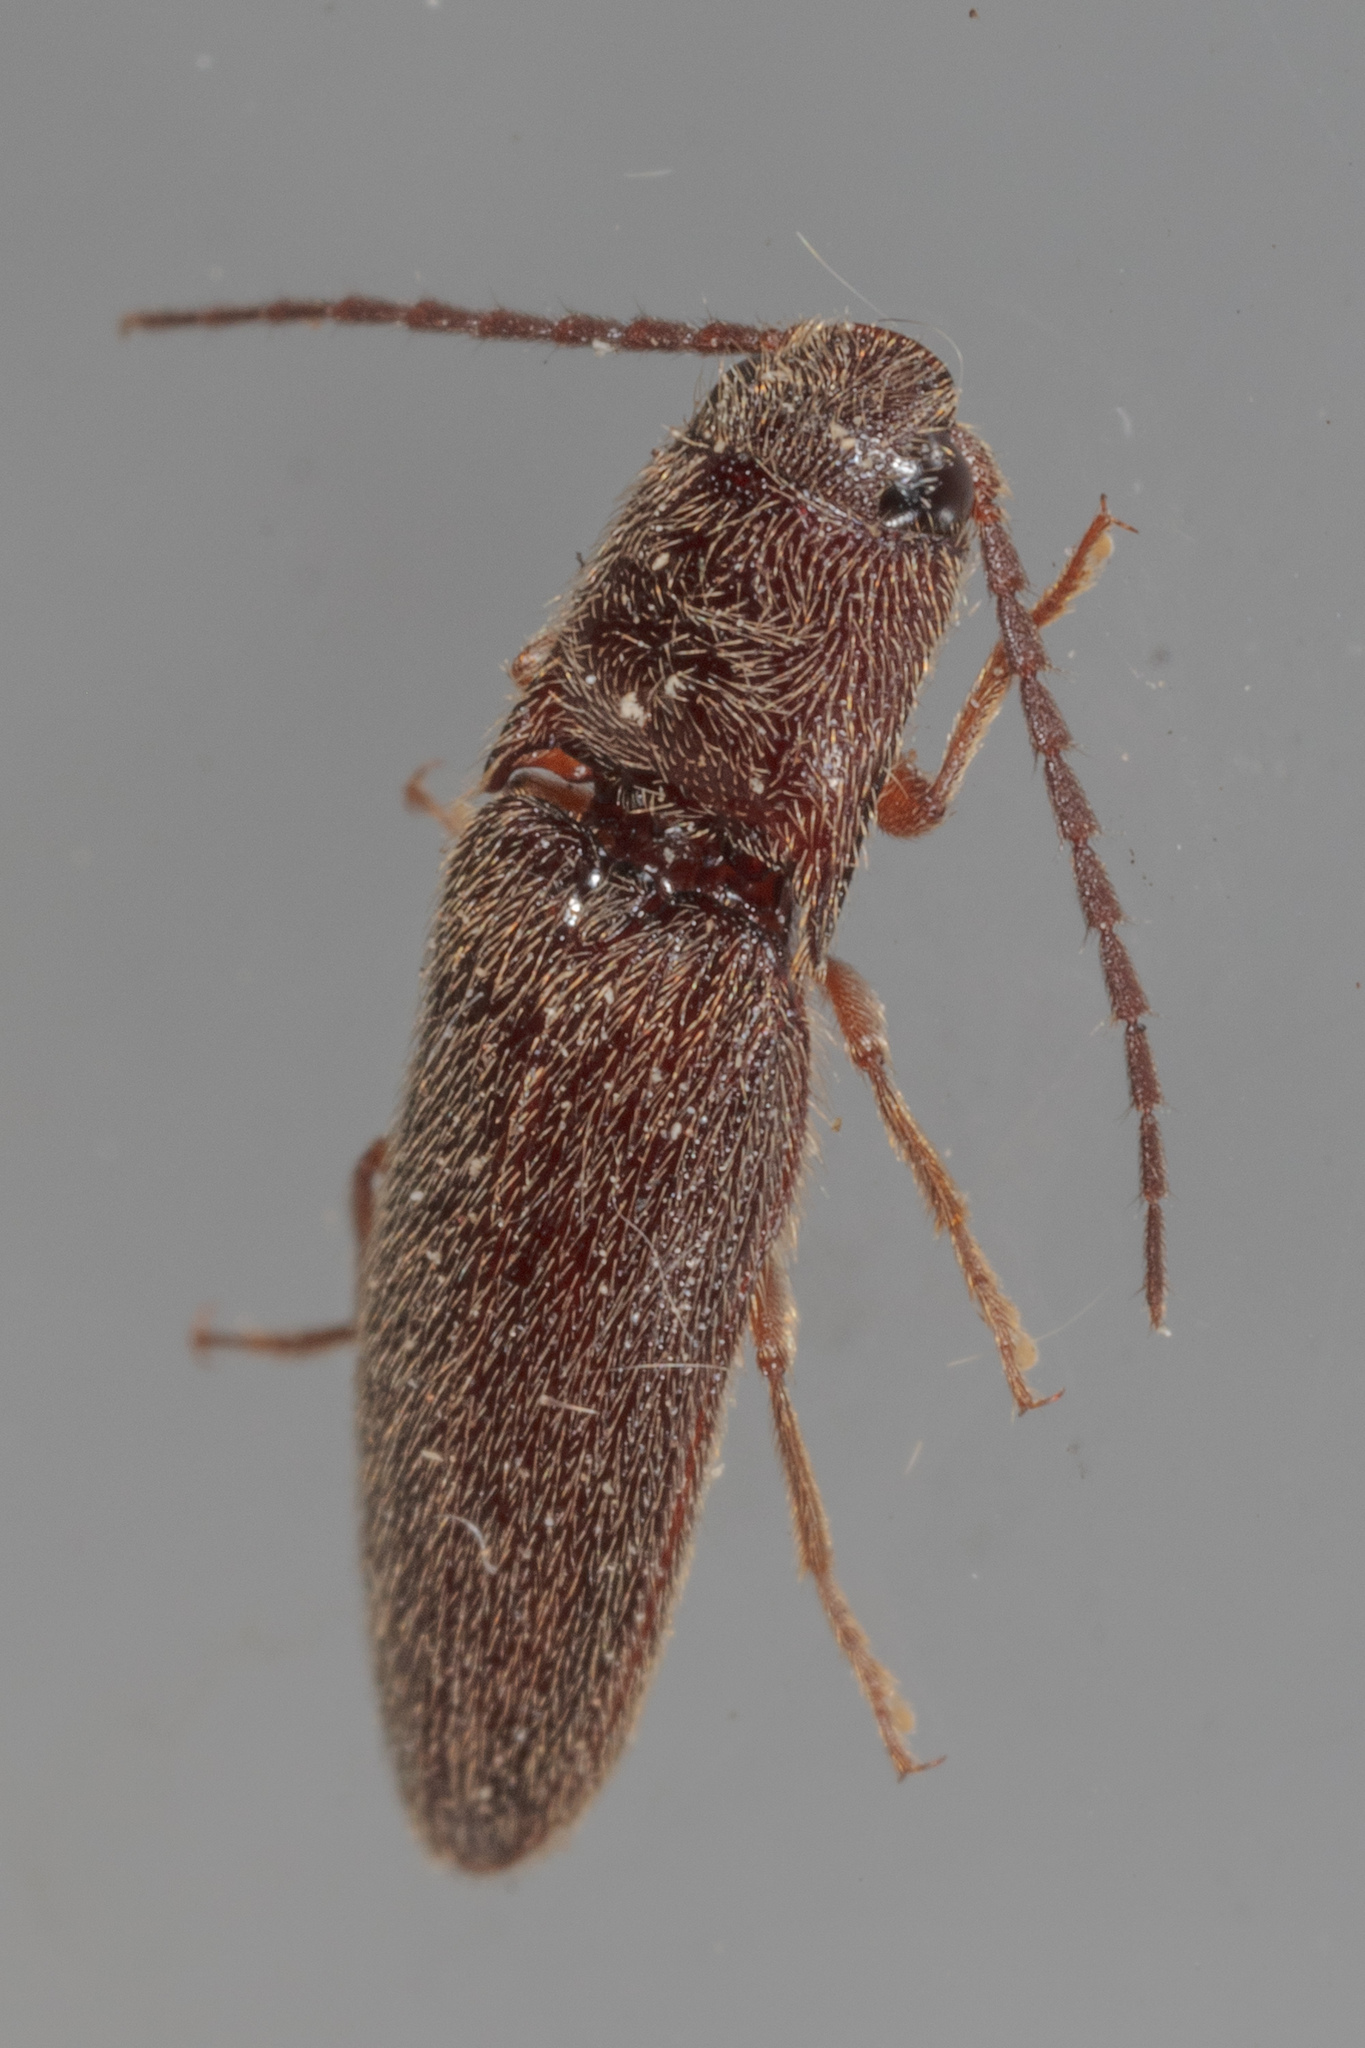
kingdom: Animalia
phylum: Arthropoda
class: Insecta
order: Coleoptera
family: Elateridae
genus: Dipropus
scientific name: Dipropus
